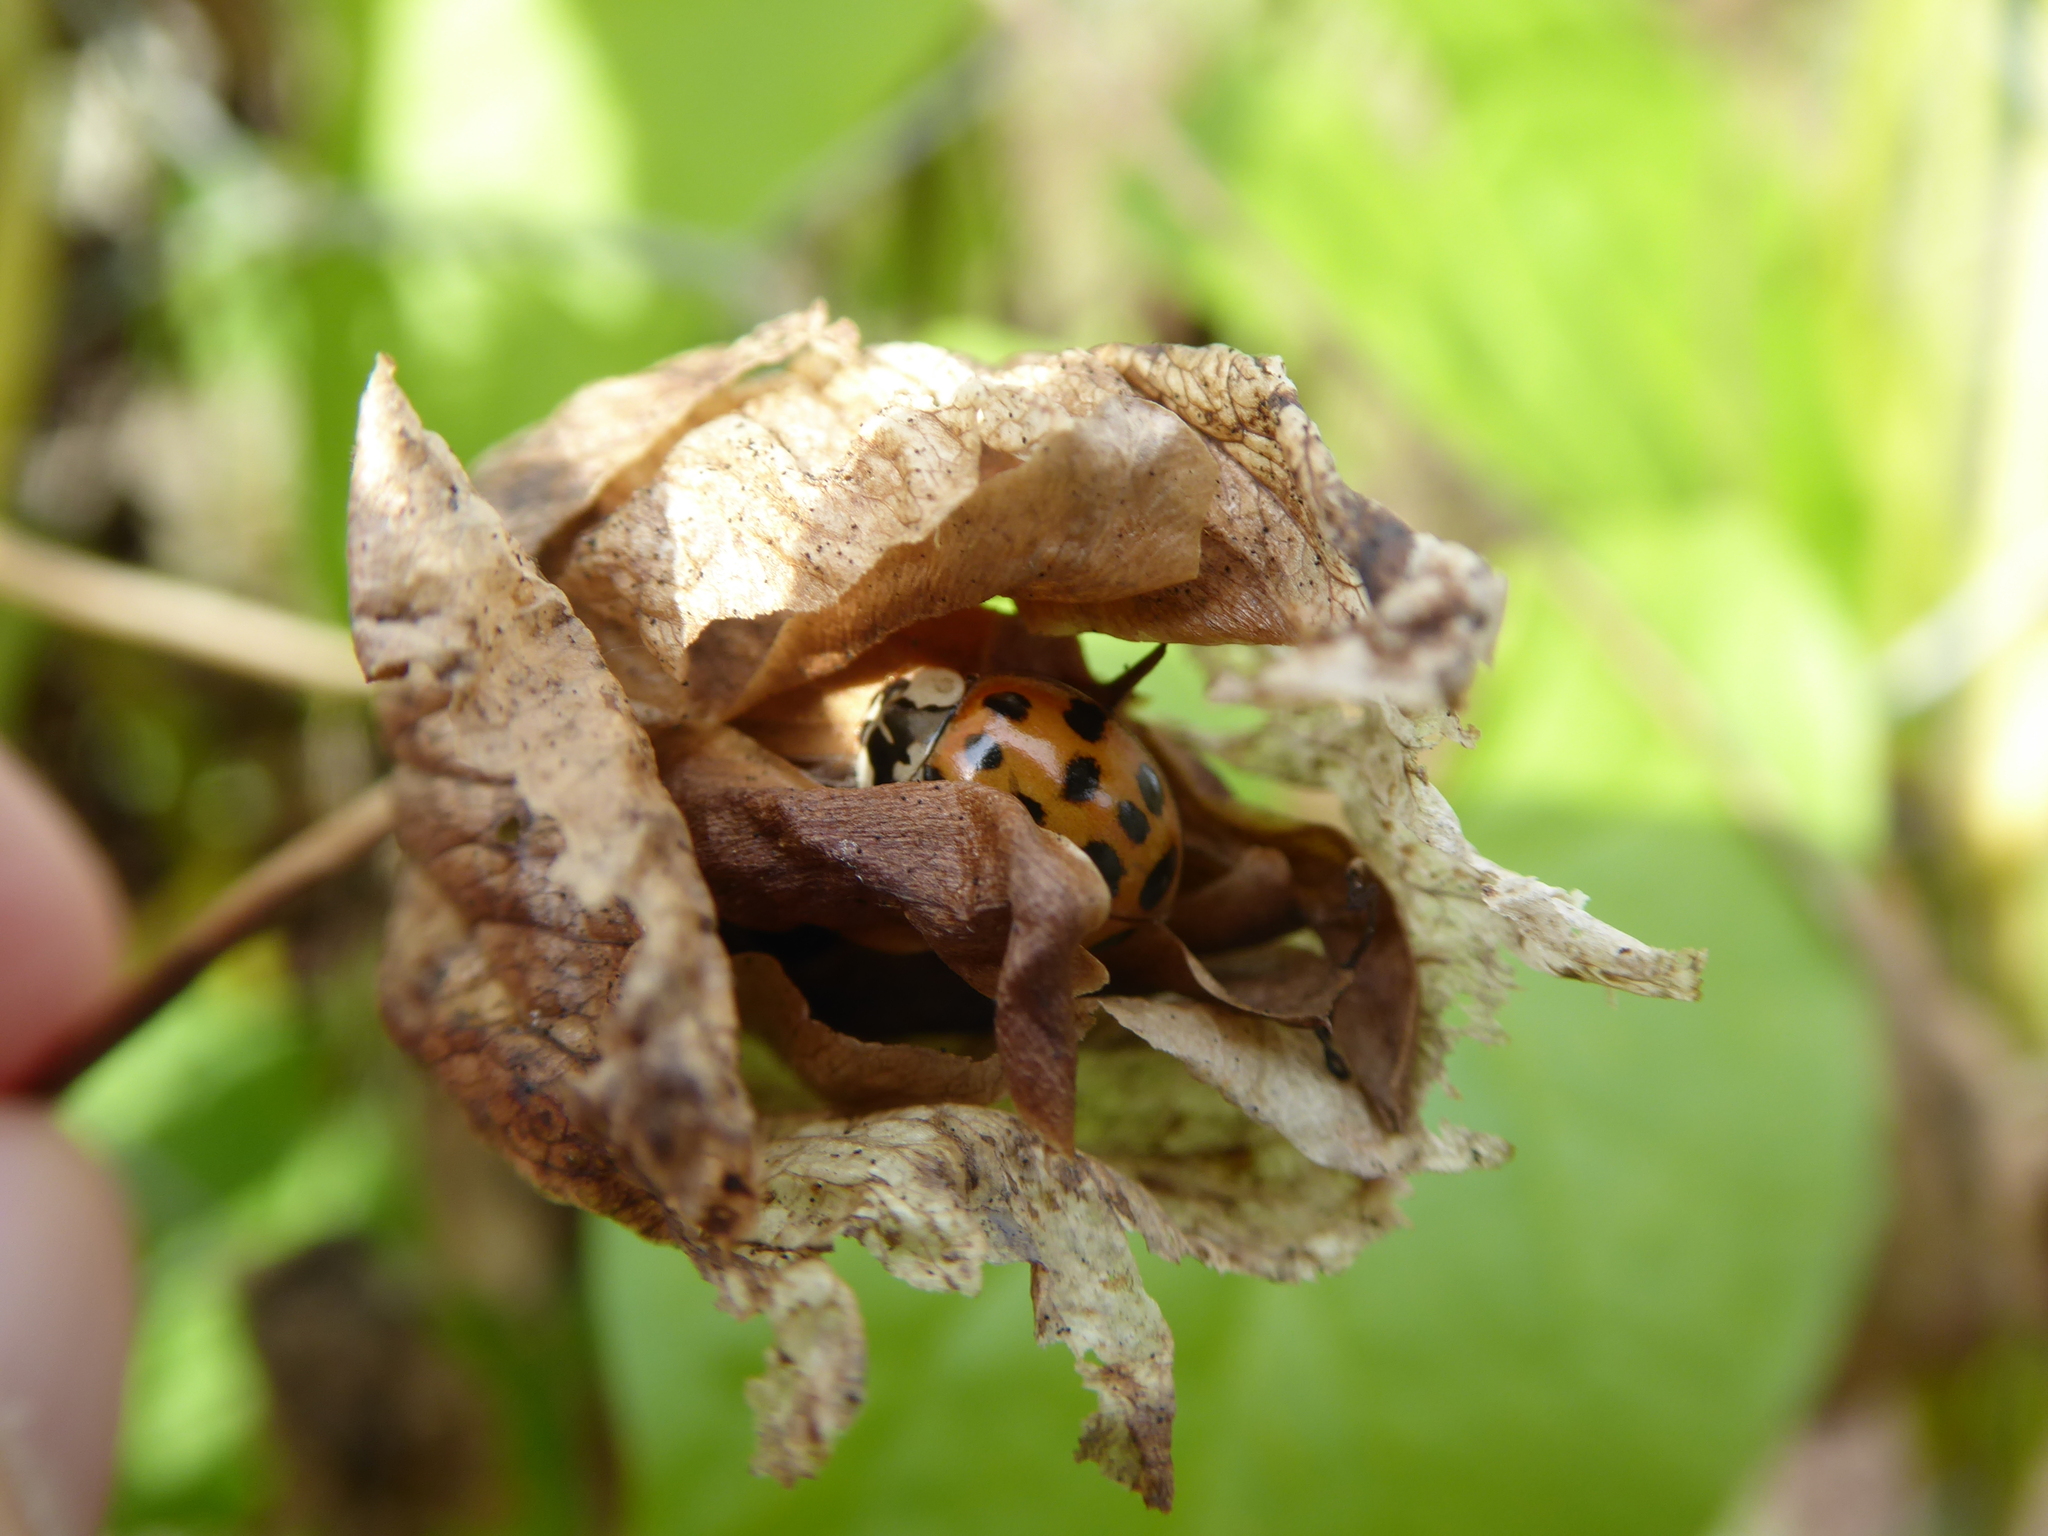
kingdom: Animalia
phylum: Arthropoda
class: Insecta
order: Coleoptera
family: Coccinellidae
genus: Harmonia
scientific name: Harmonia axyridis
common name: Harlequin ladybird
